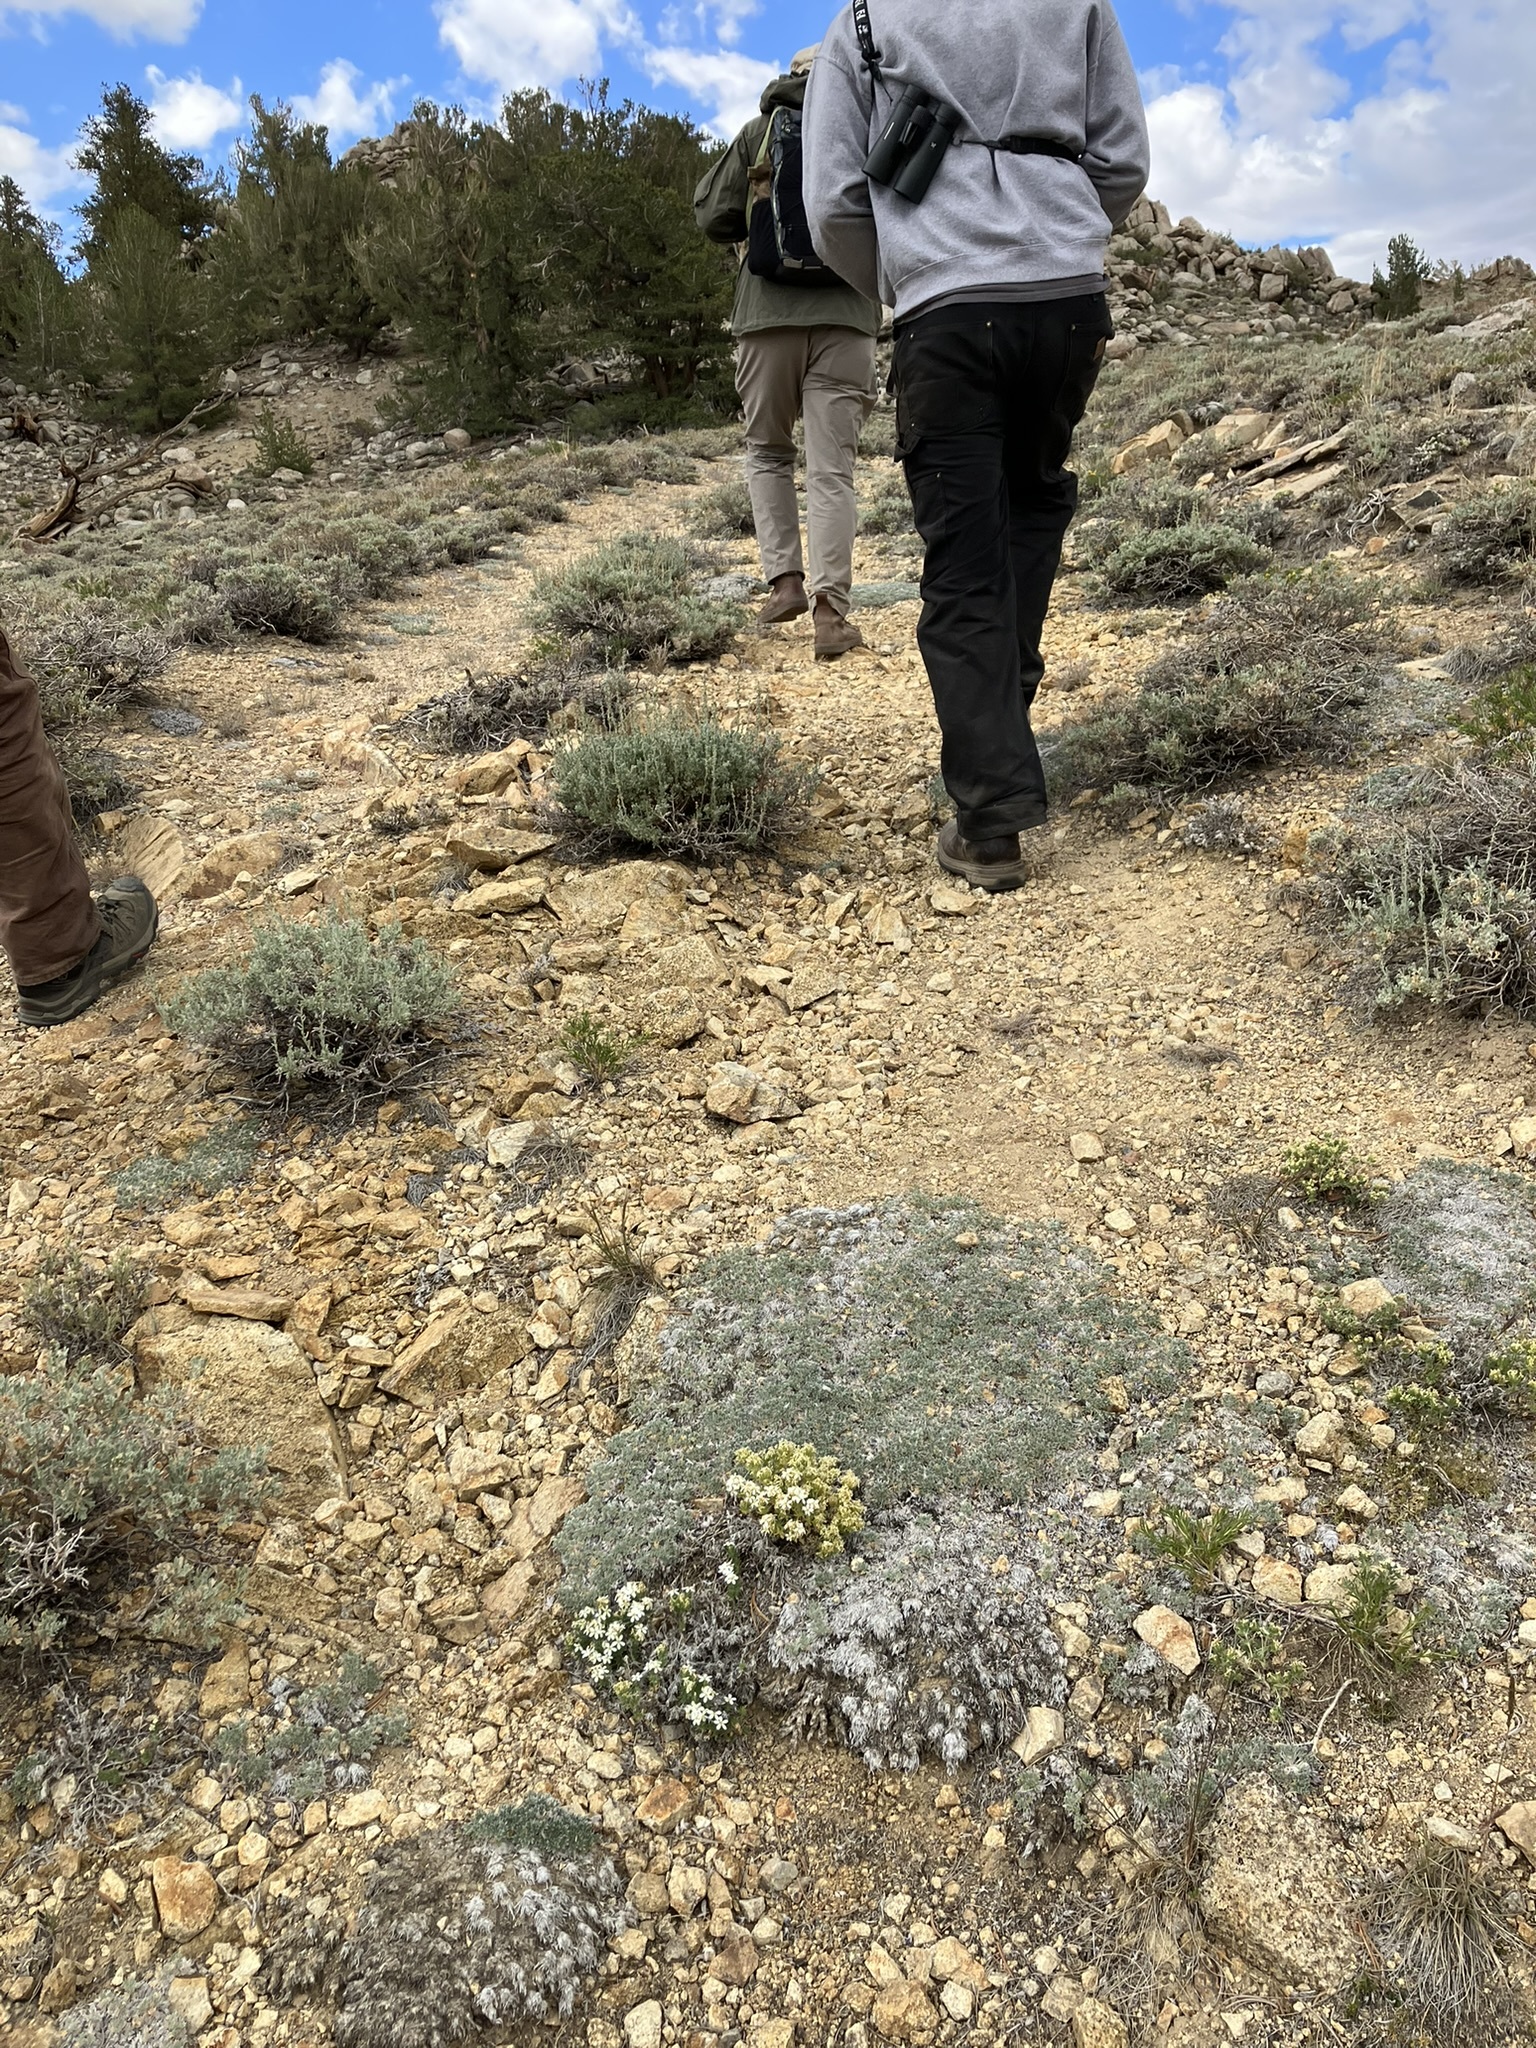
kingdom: Plantae
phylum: Tracheophyta
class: Magnoliopsida
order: Fabales
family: Fabaceae
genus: Lupinus
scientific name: Lupinus breweri
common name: Brewer's lupine
